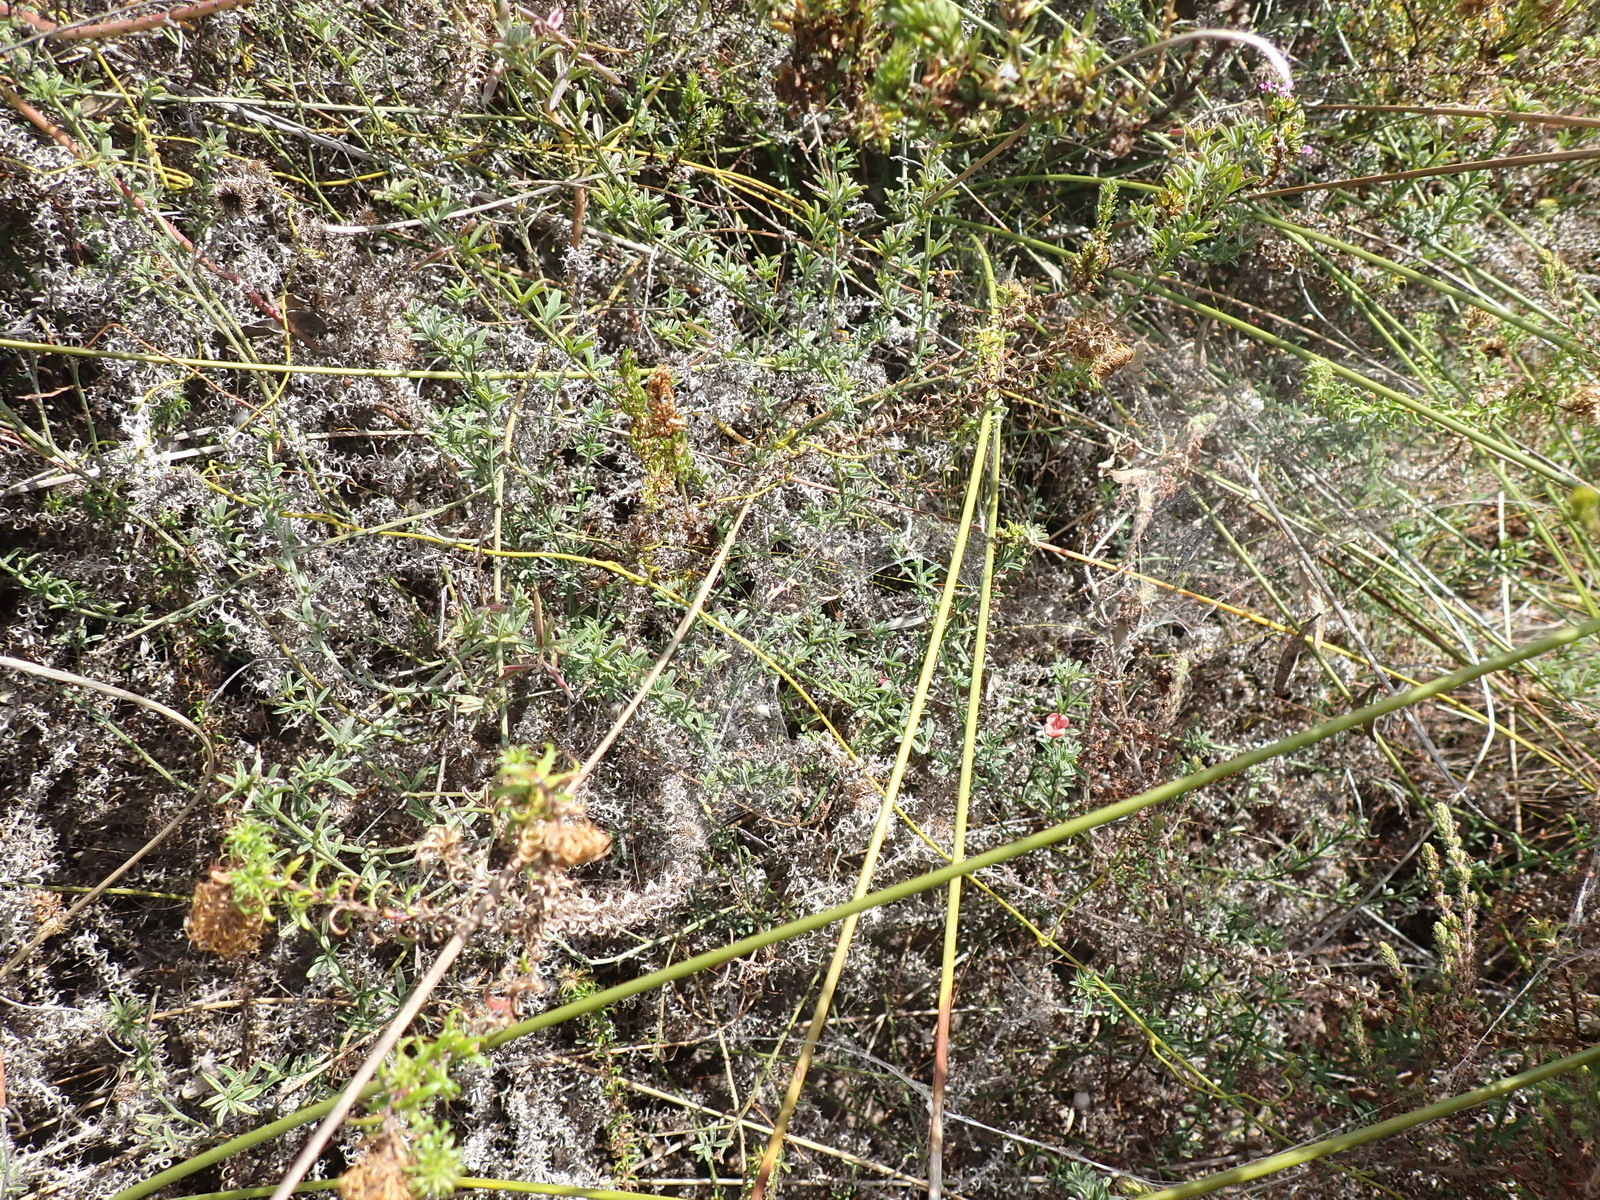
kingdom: Plantae
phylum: Tracheophyta
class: Magnoliopsida
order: Fabales
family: Fabaceae
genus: Indigofera
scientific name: Indigofera priorii
